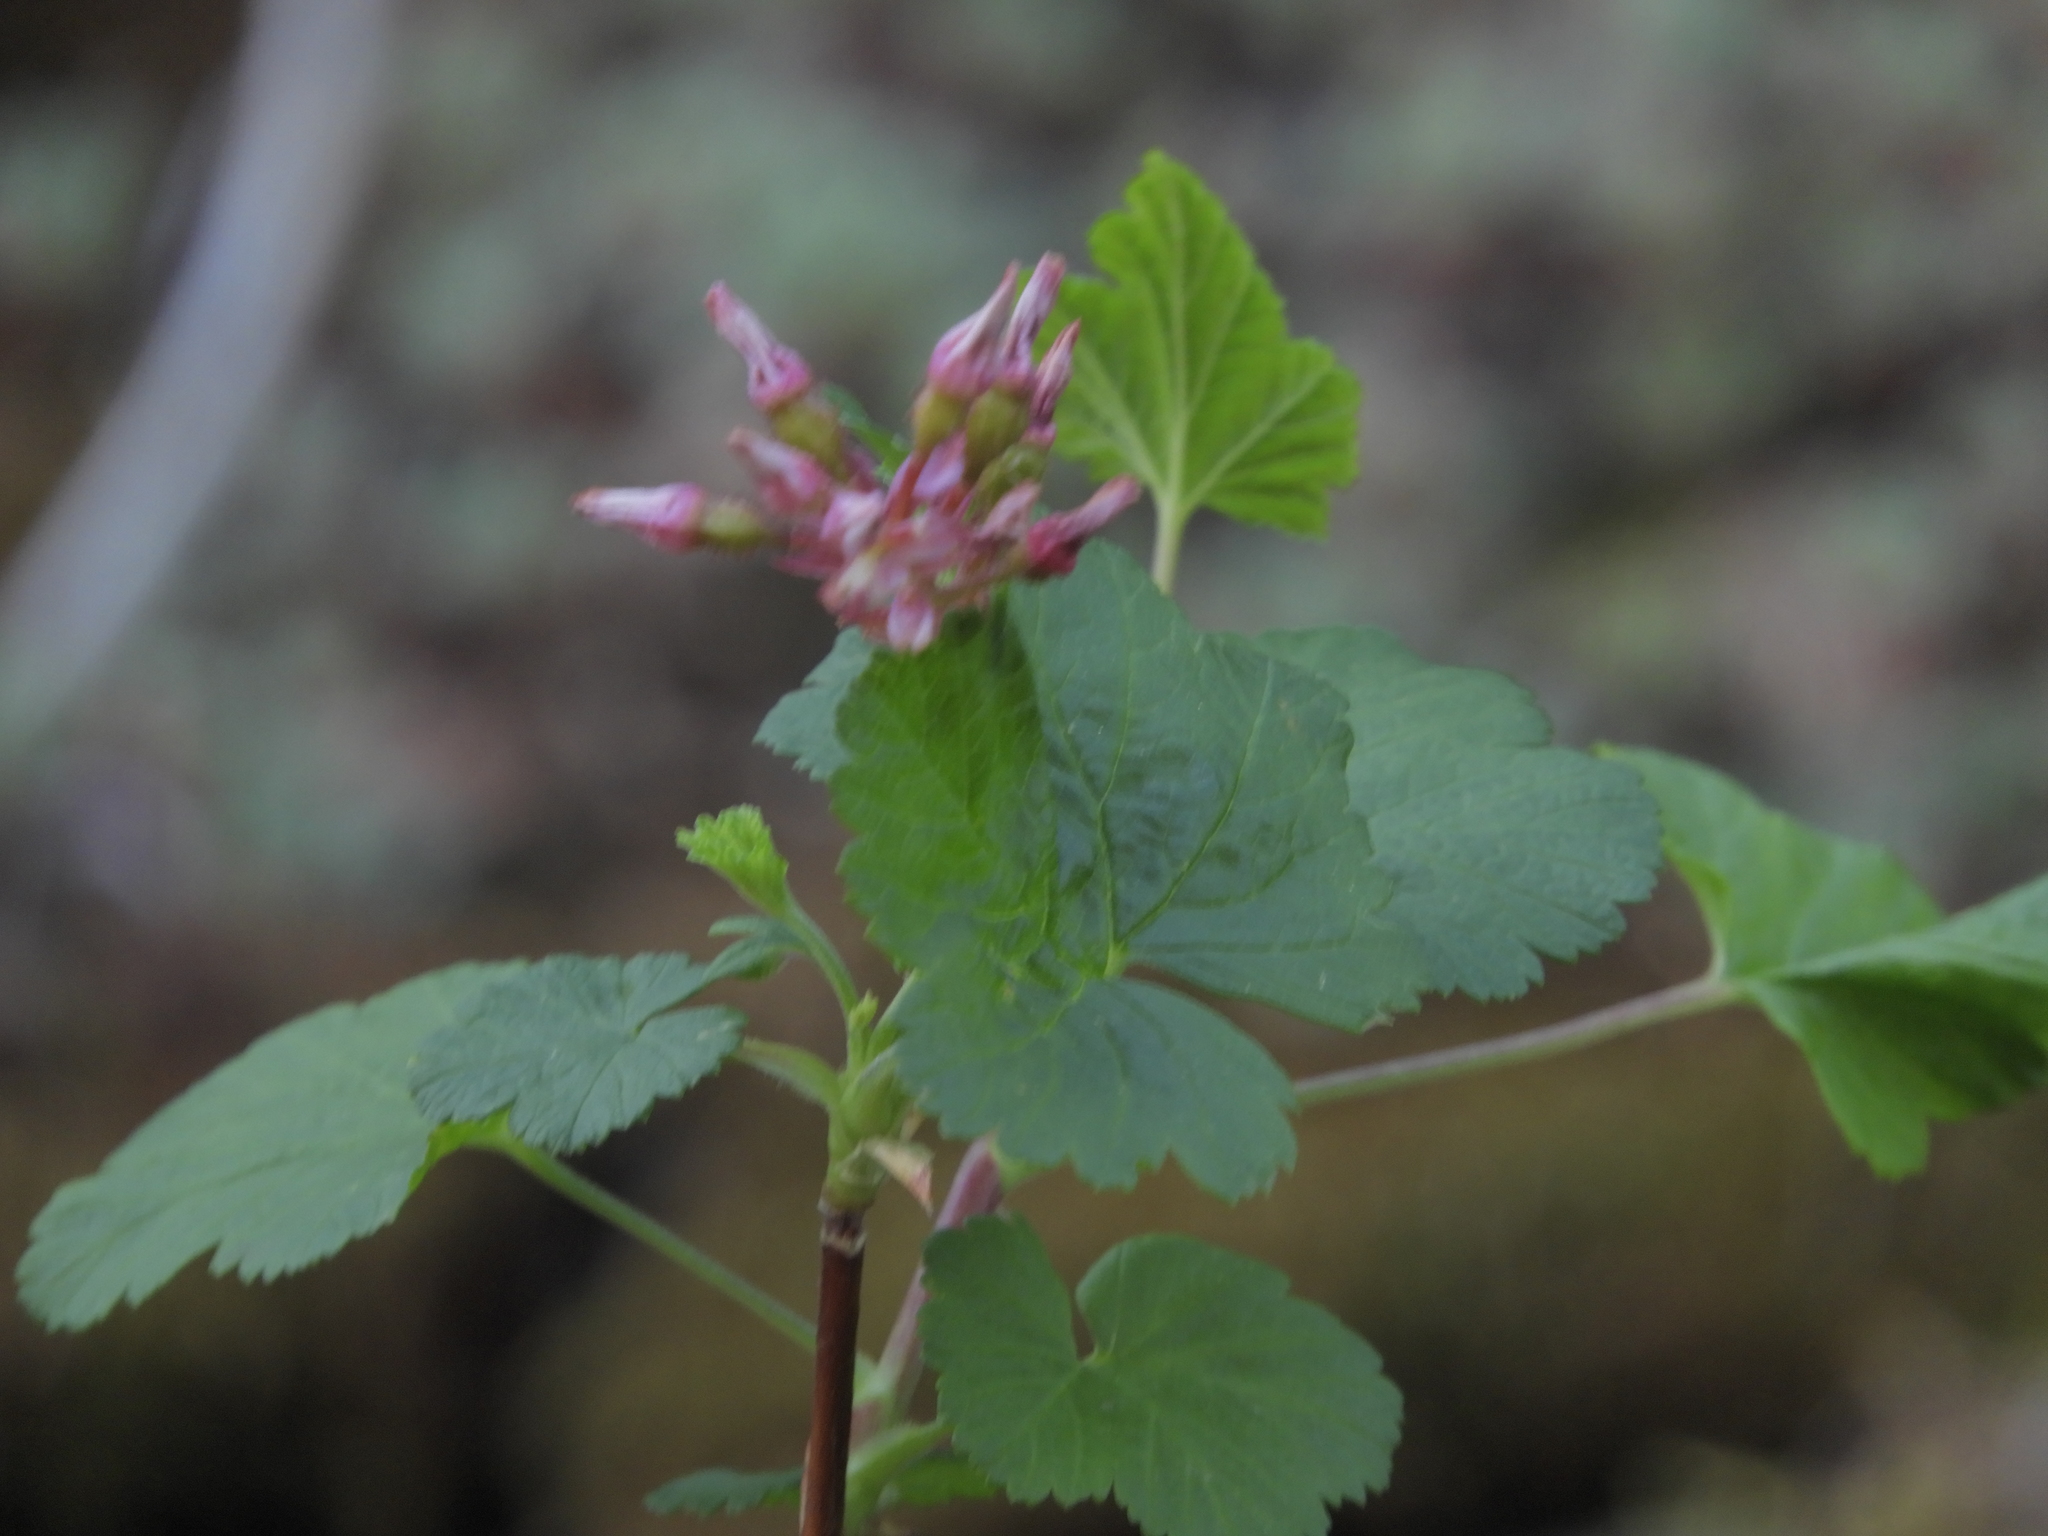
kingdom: Plantae
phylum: Tracheophyta
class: Magnoliopsida
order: Saxifragales
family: Grossulariaceae
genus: Ribes
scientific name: Ribes nevadense
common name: Mountain pink currant
